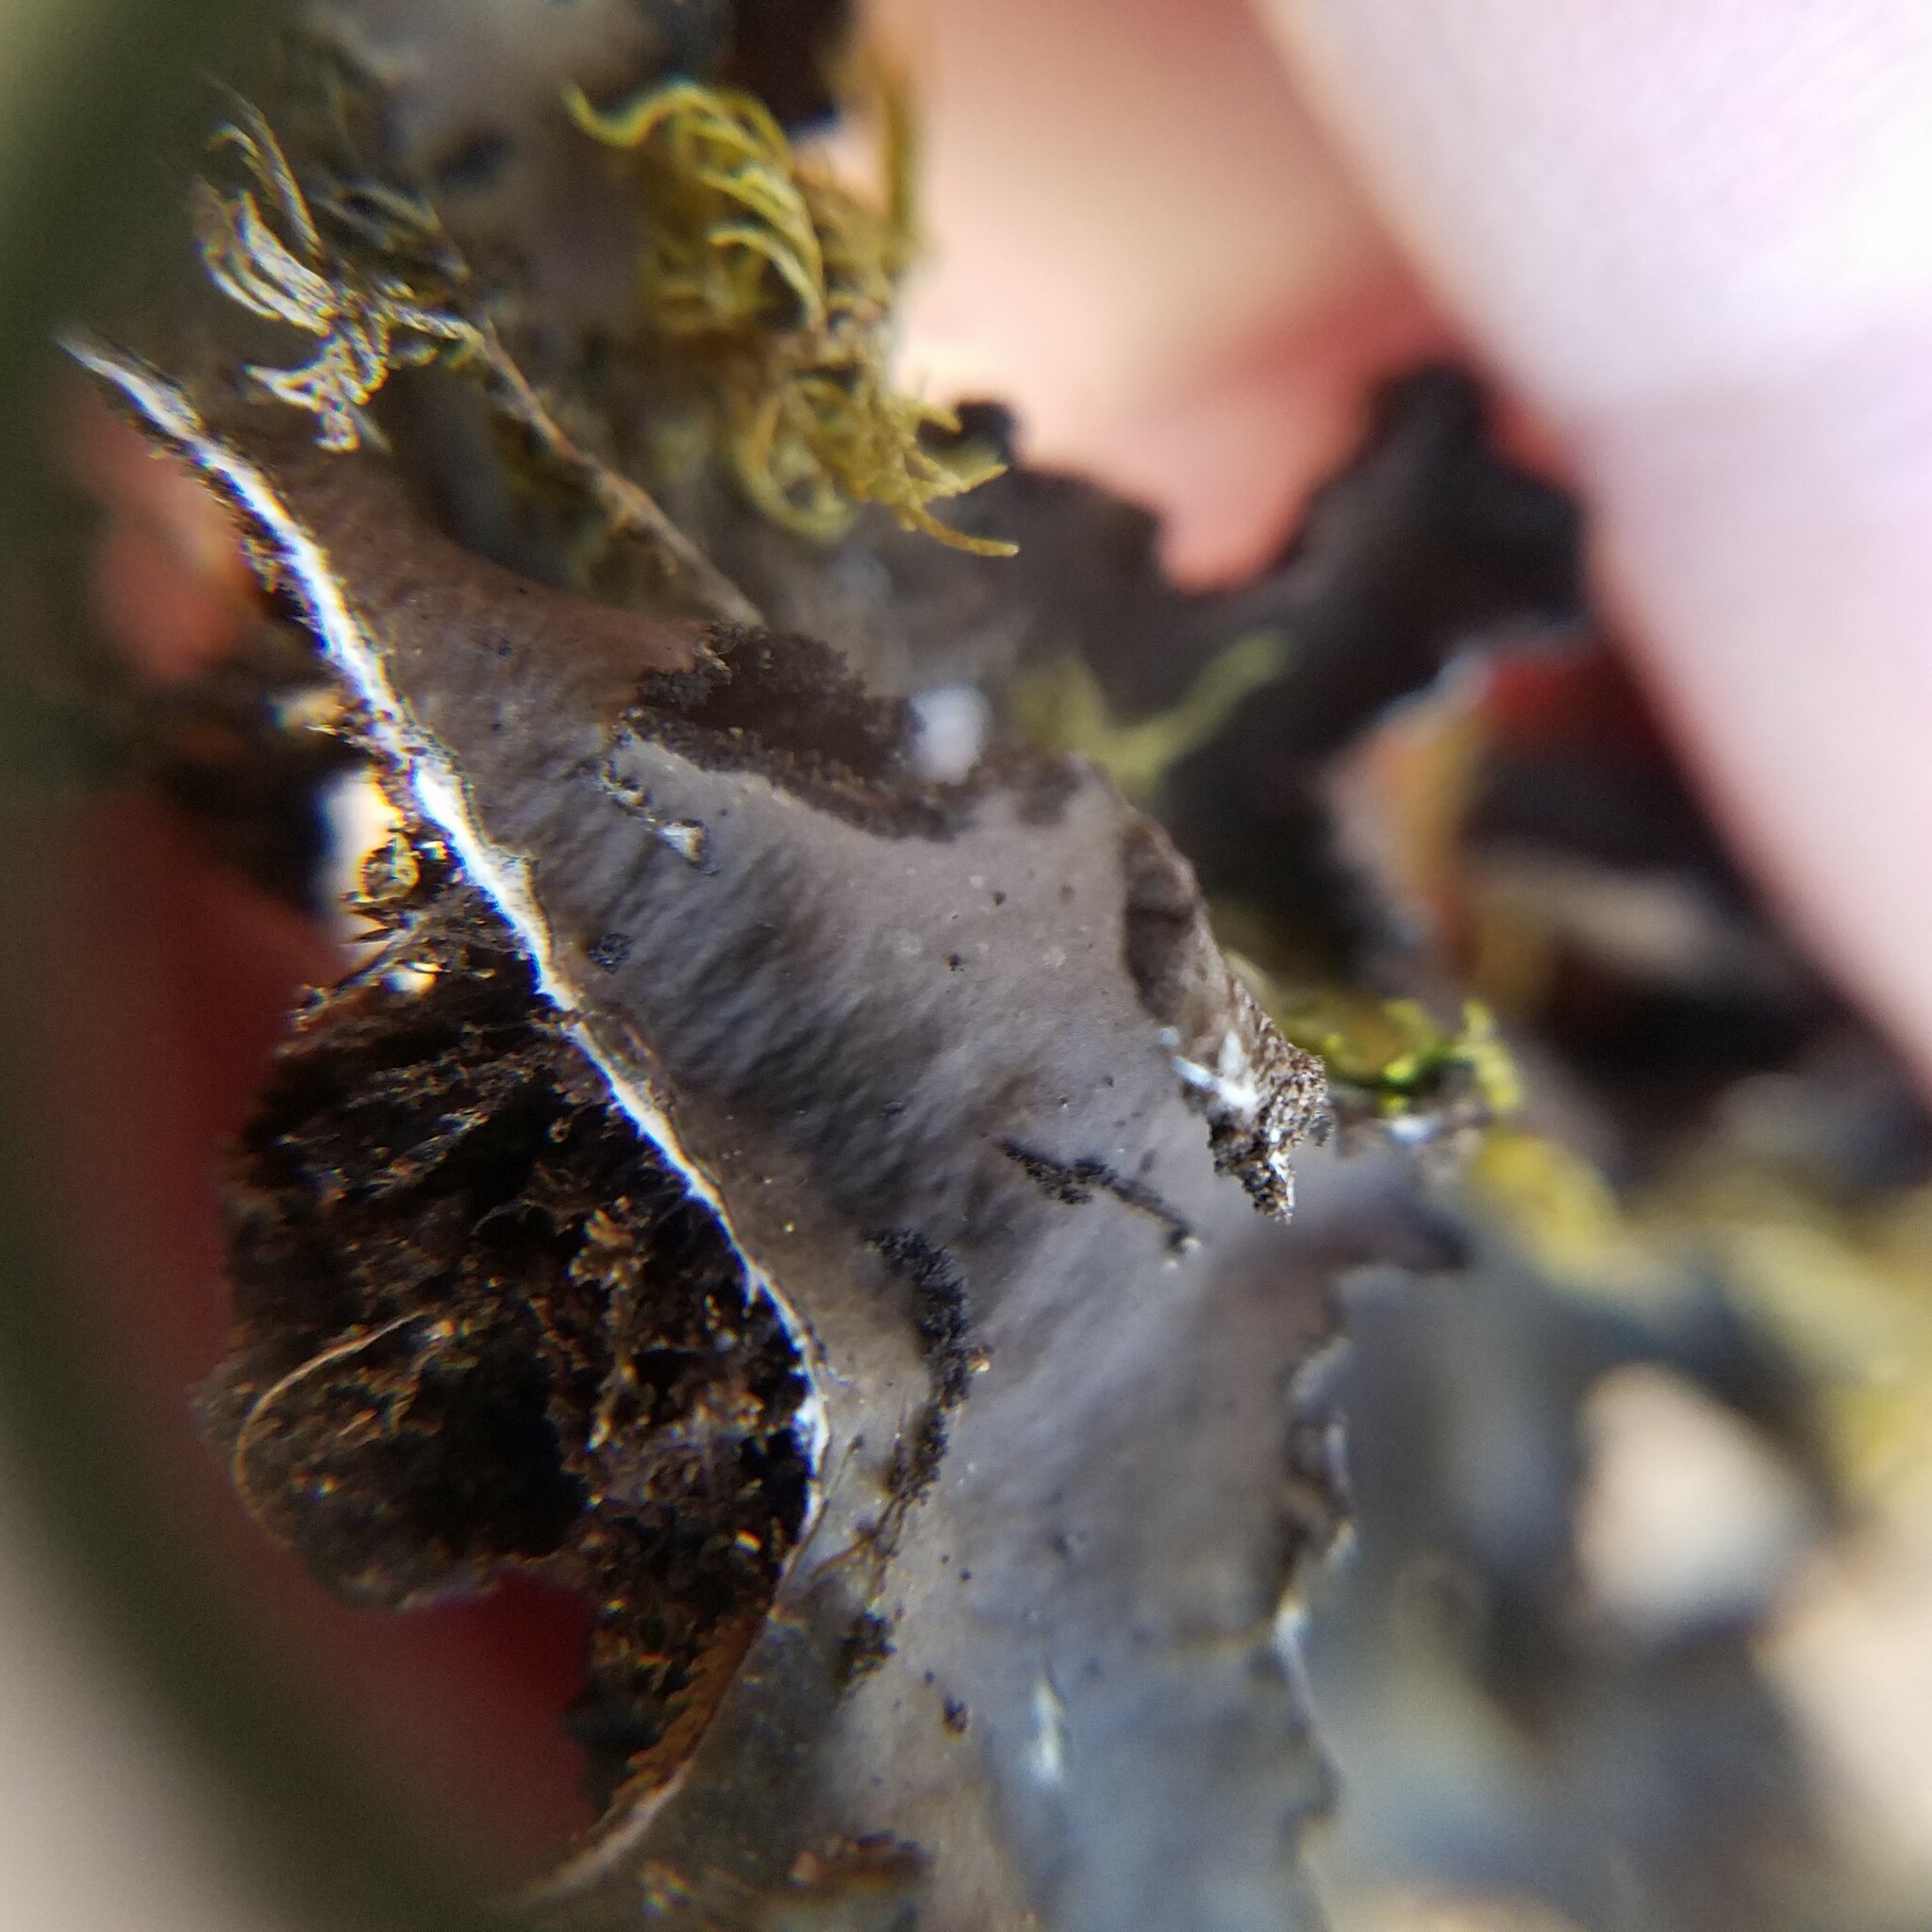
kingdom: Fungi
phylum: Ascomycota
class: Lecanoromycetes
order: Peltigerales
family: Lobariaceae
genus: Sticta
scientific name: Sticta beauvoisii
